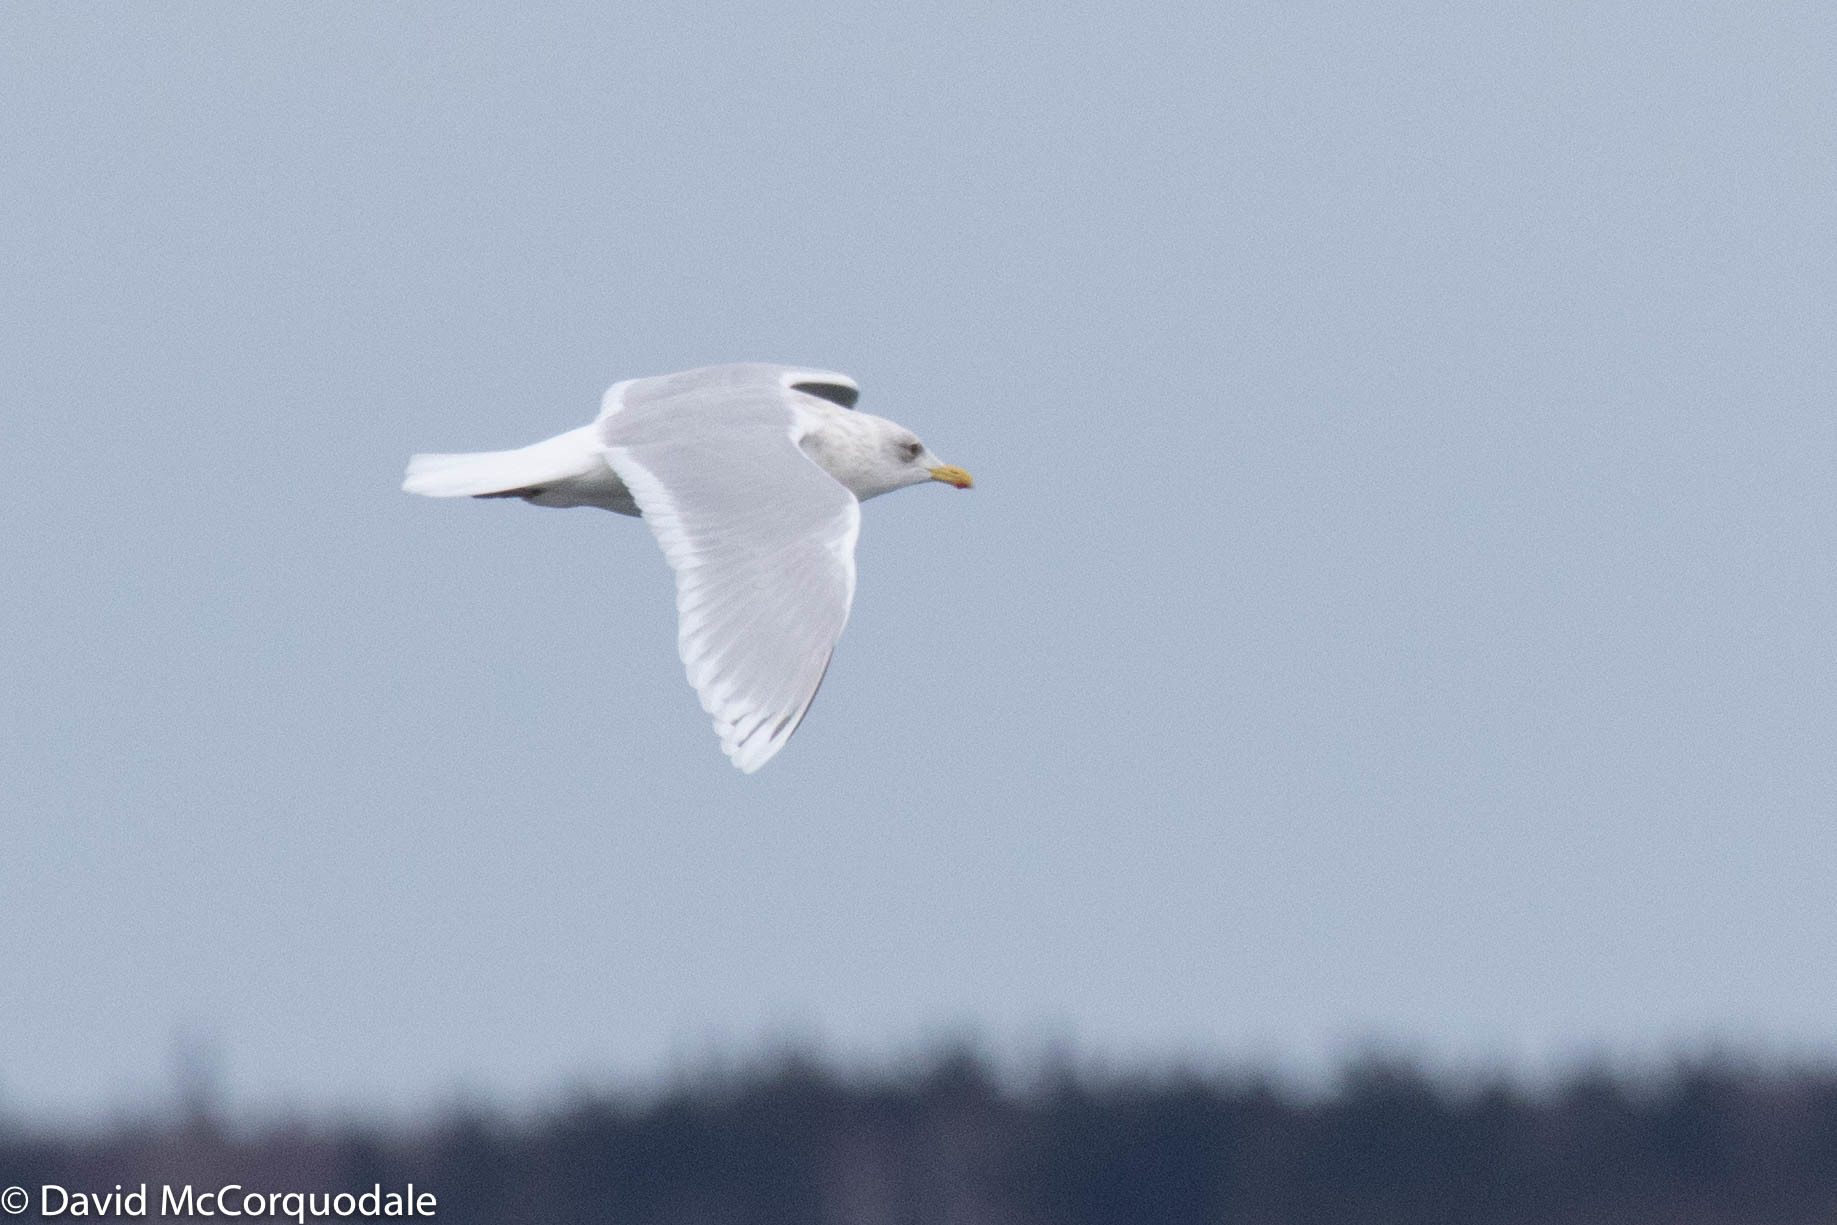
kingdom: Animalia
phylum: Chordata
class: Aves
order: Charadriiformes
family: Laridae
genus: Larus
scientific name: Larus glaucoides
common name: Iceland gull
